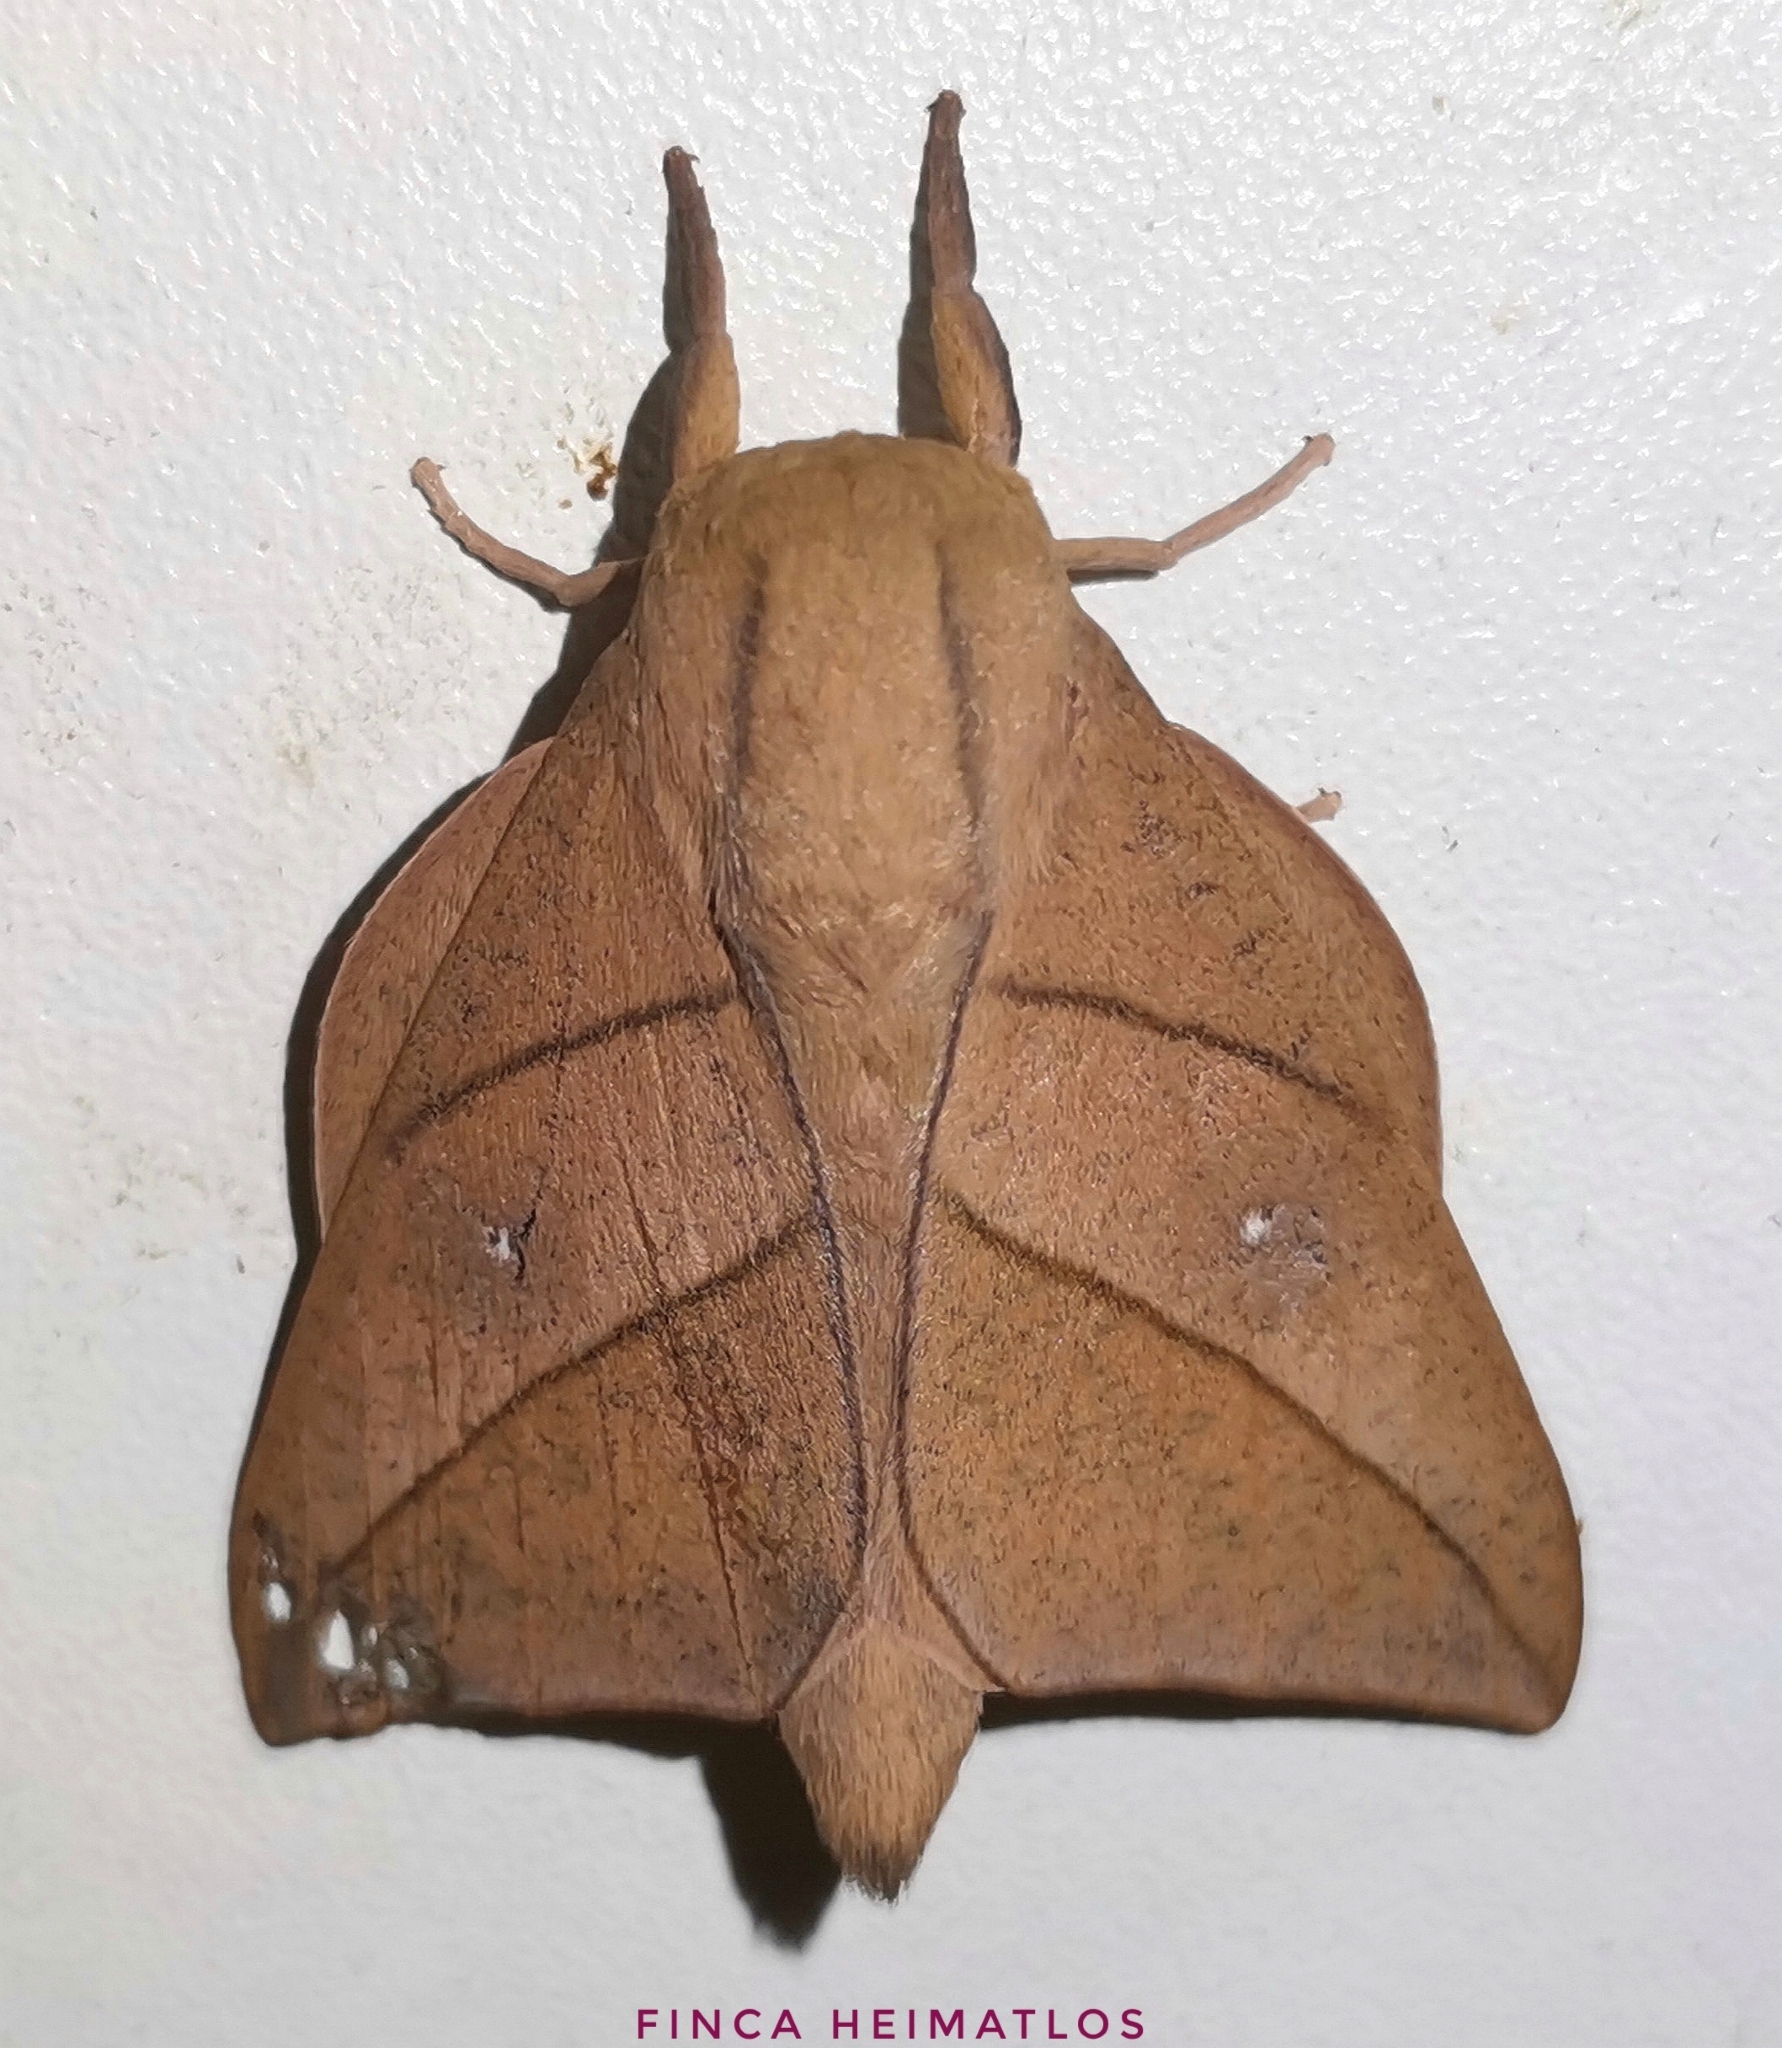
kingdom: Animalia
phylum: Arthropoda
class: Insecta
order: Lepidoptera
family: Saturniidae
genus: Adeloneivaia
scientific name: Adeloneivaia acuta
